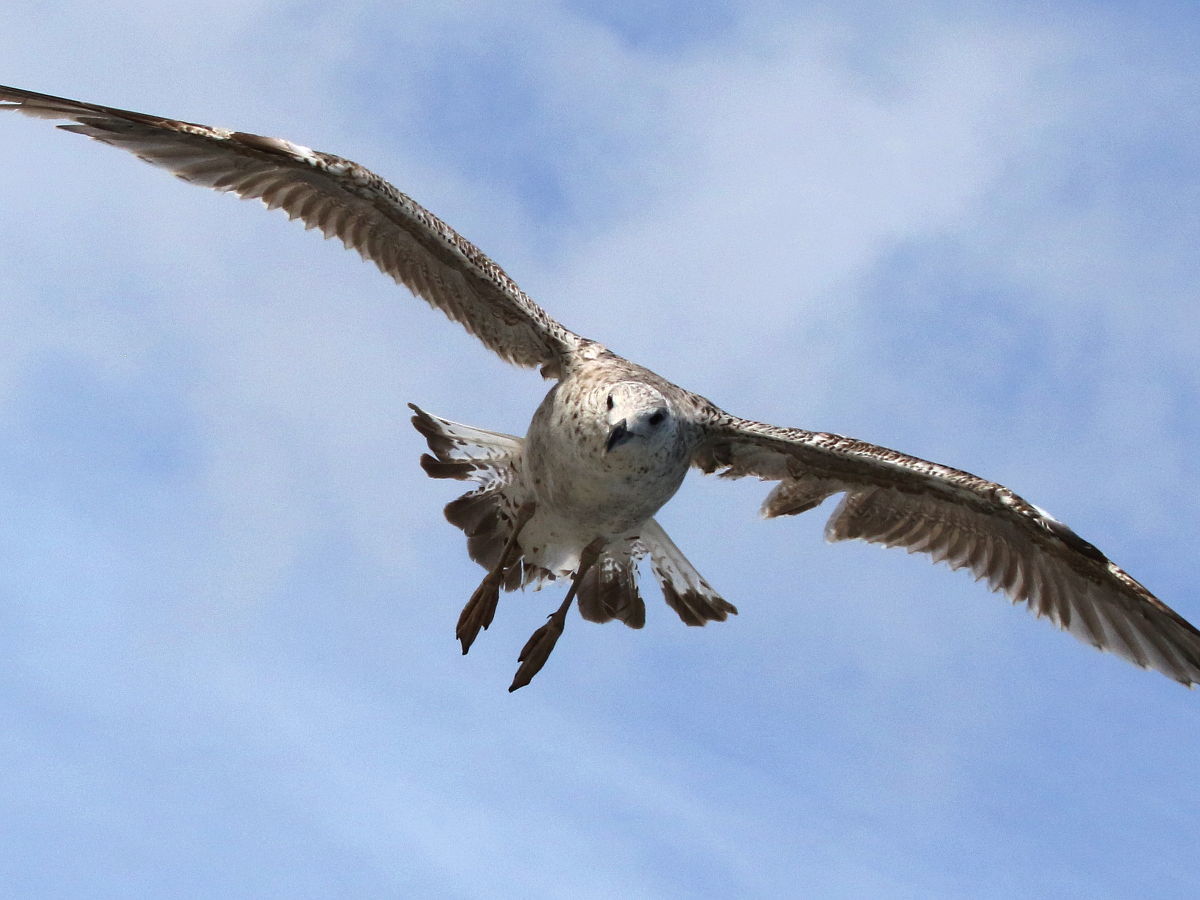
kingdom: Animalia
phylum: Chordata
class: Aves
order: Charadriiformes
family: Laridae
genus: Larus
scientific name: Larus marinus
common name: Great black-backed gull
